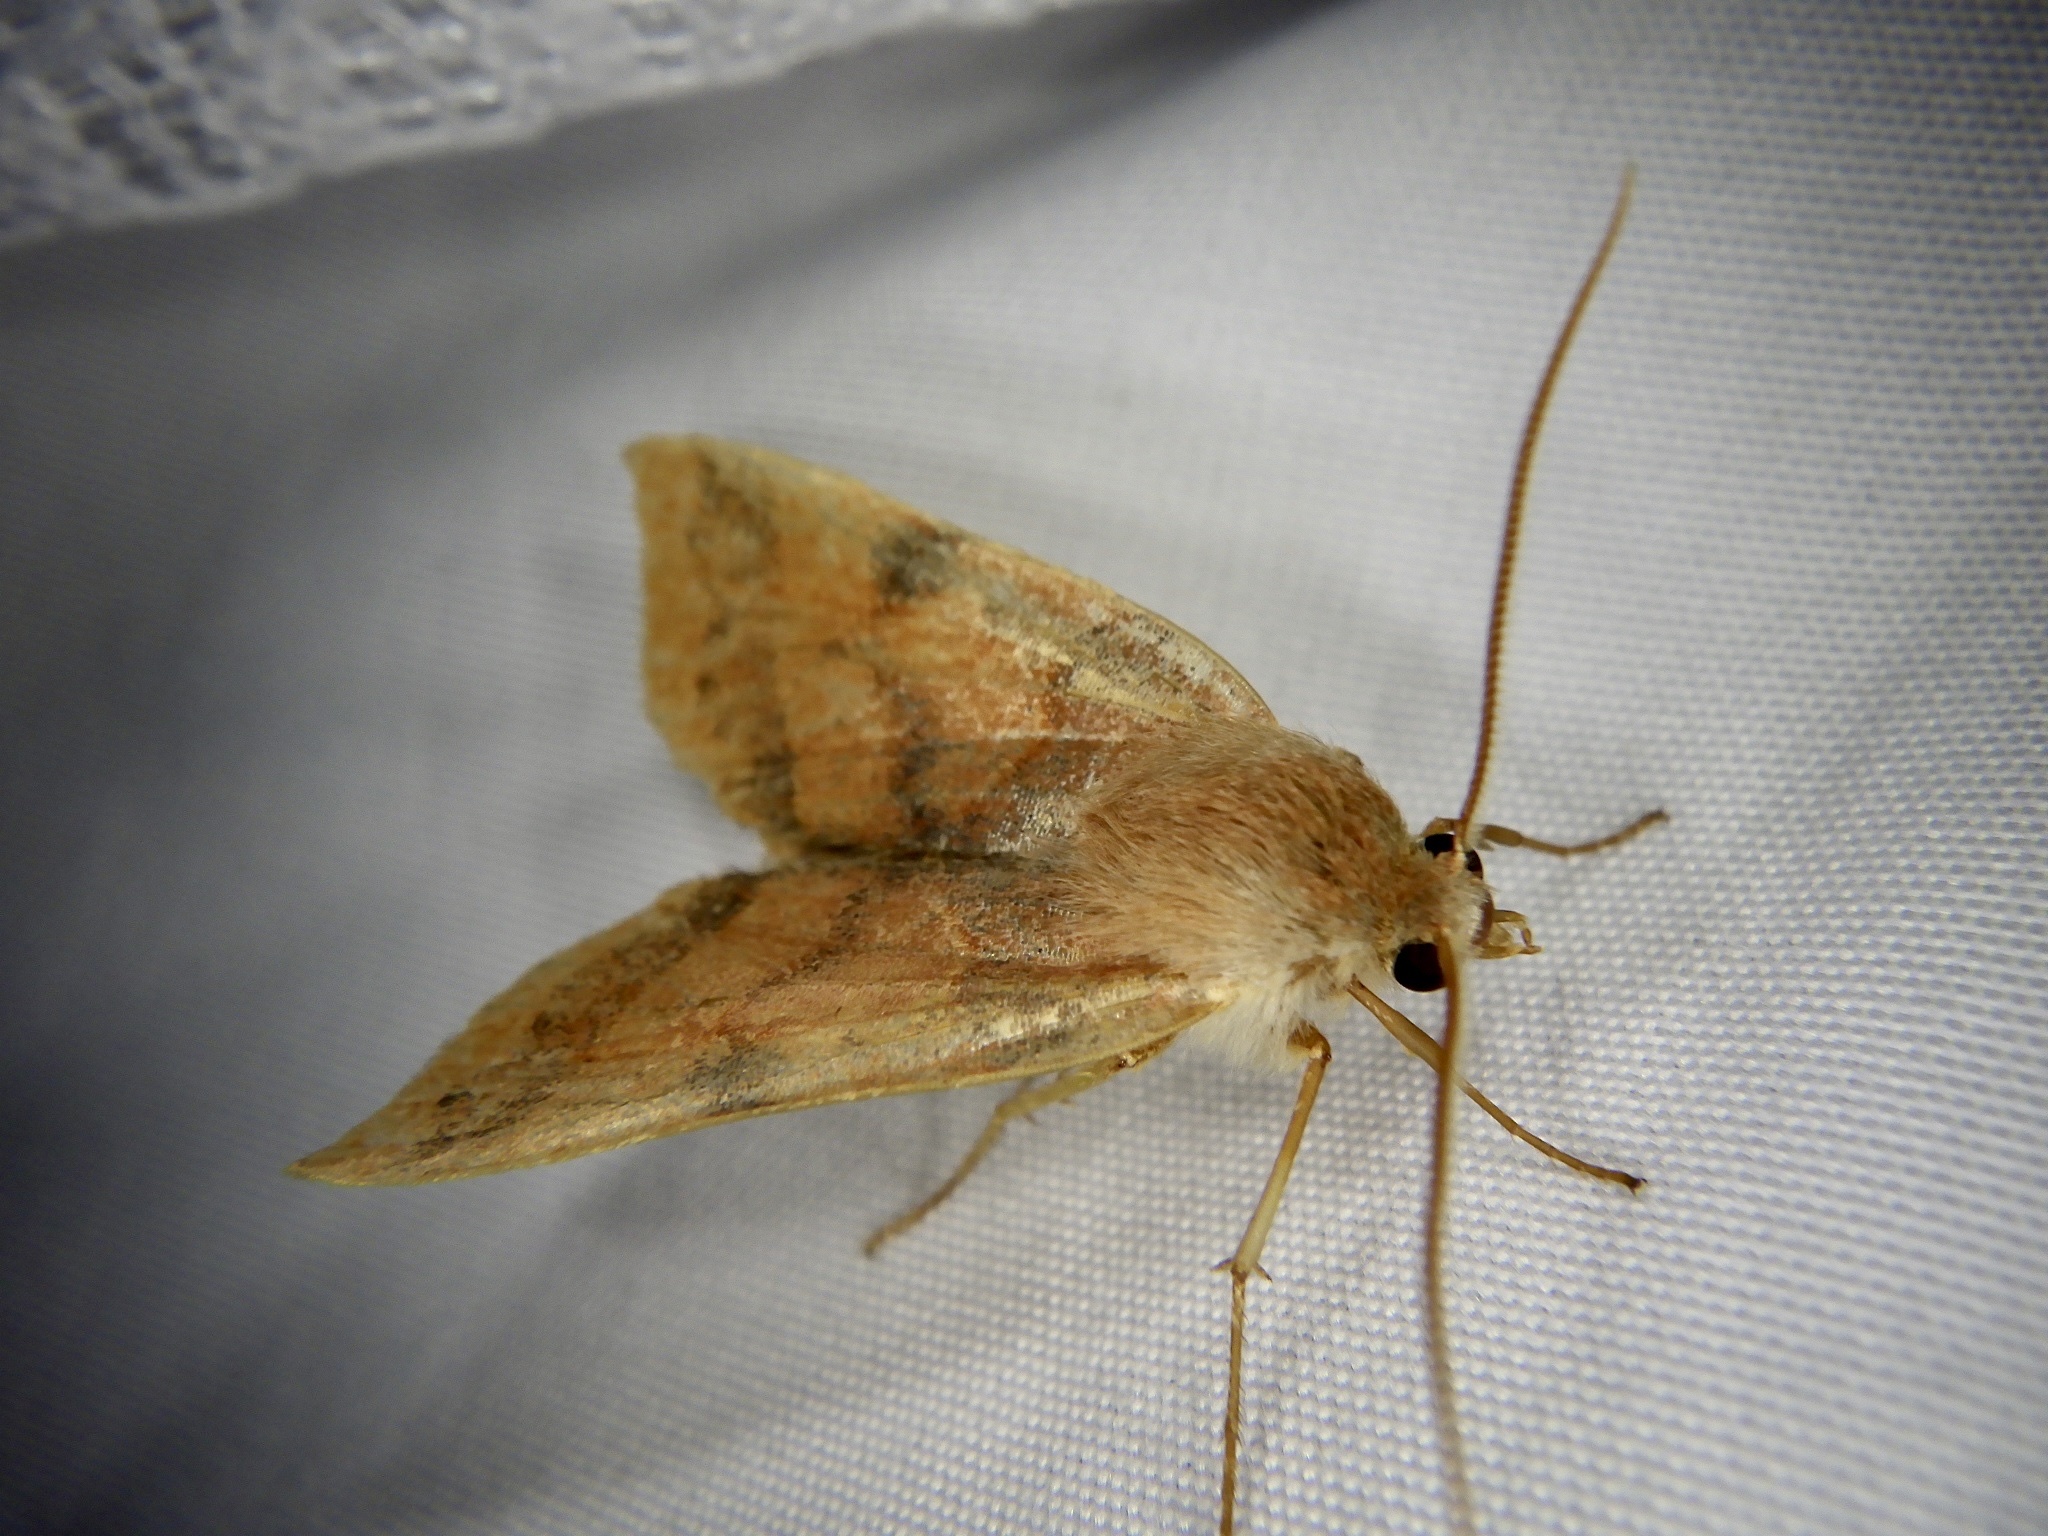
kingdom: Animalia
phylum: Arthropoda
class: Insecta
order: Lepidoptera
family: Noctuidae
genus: Telorta
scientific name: Telorta edentata
